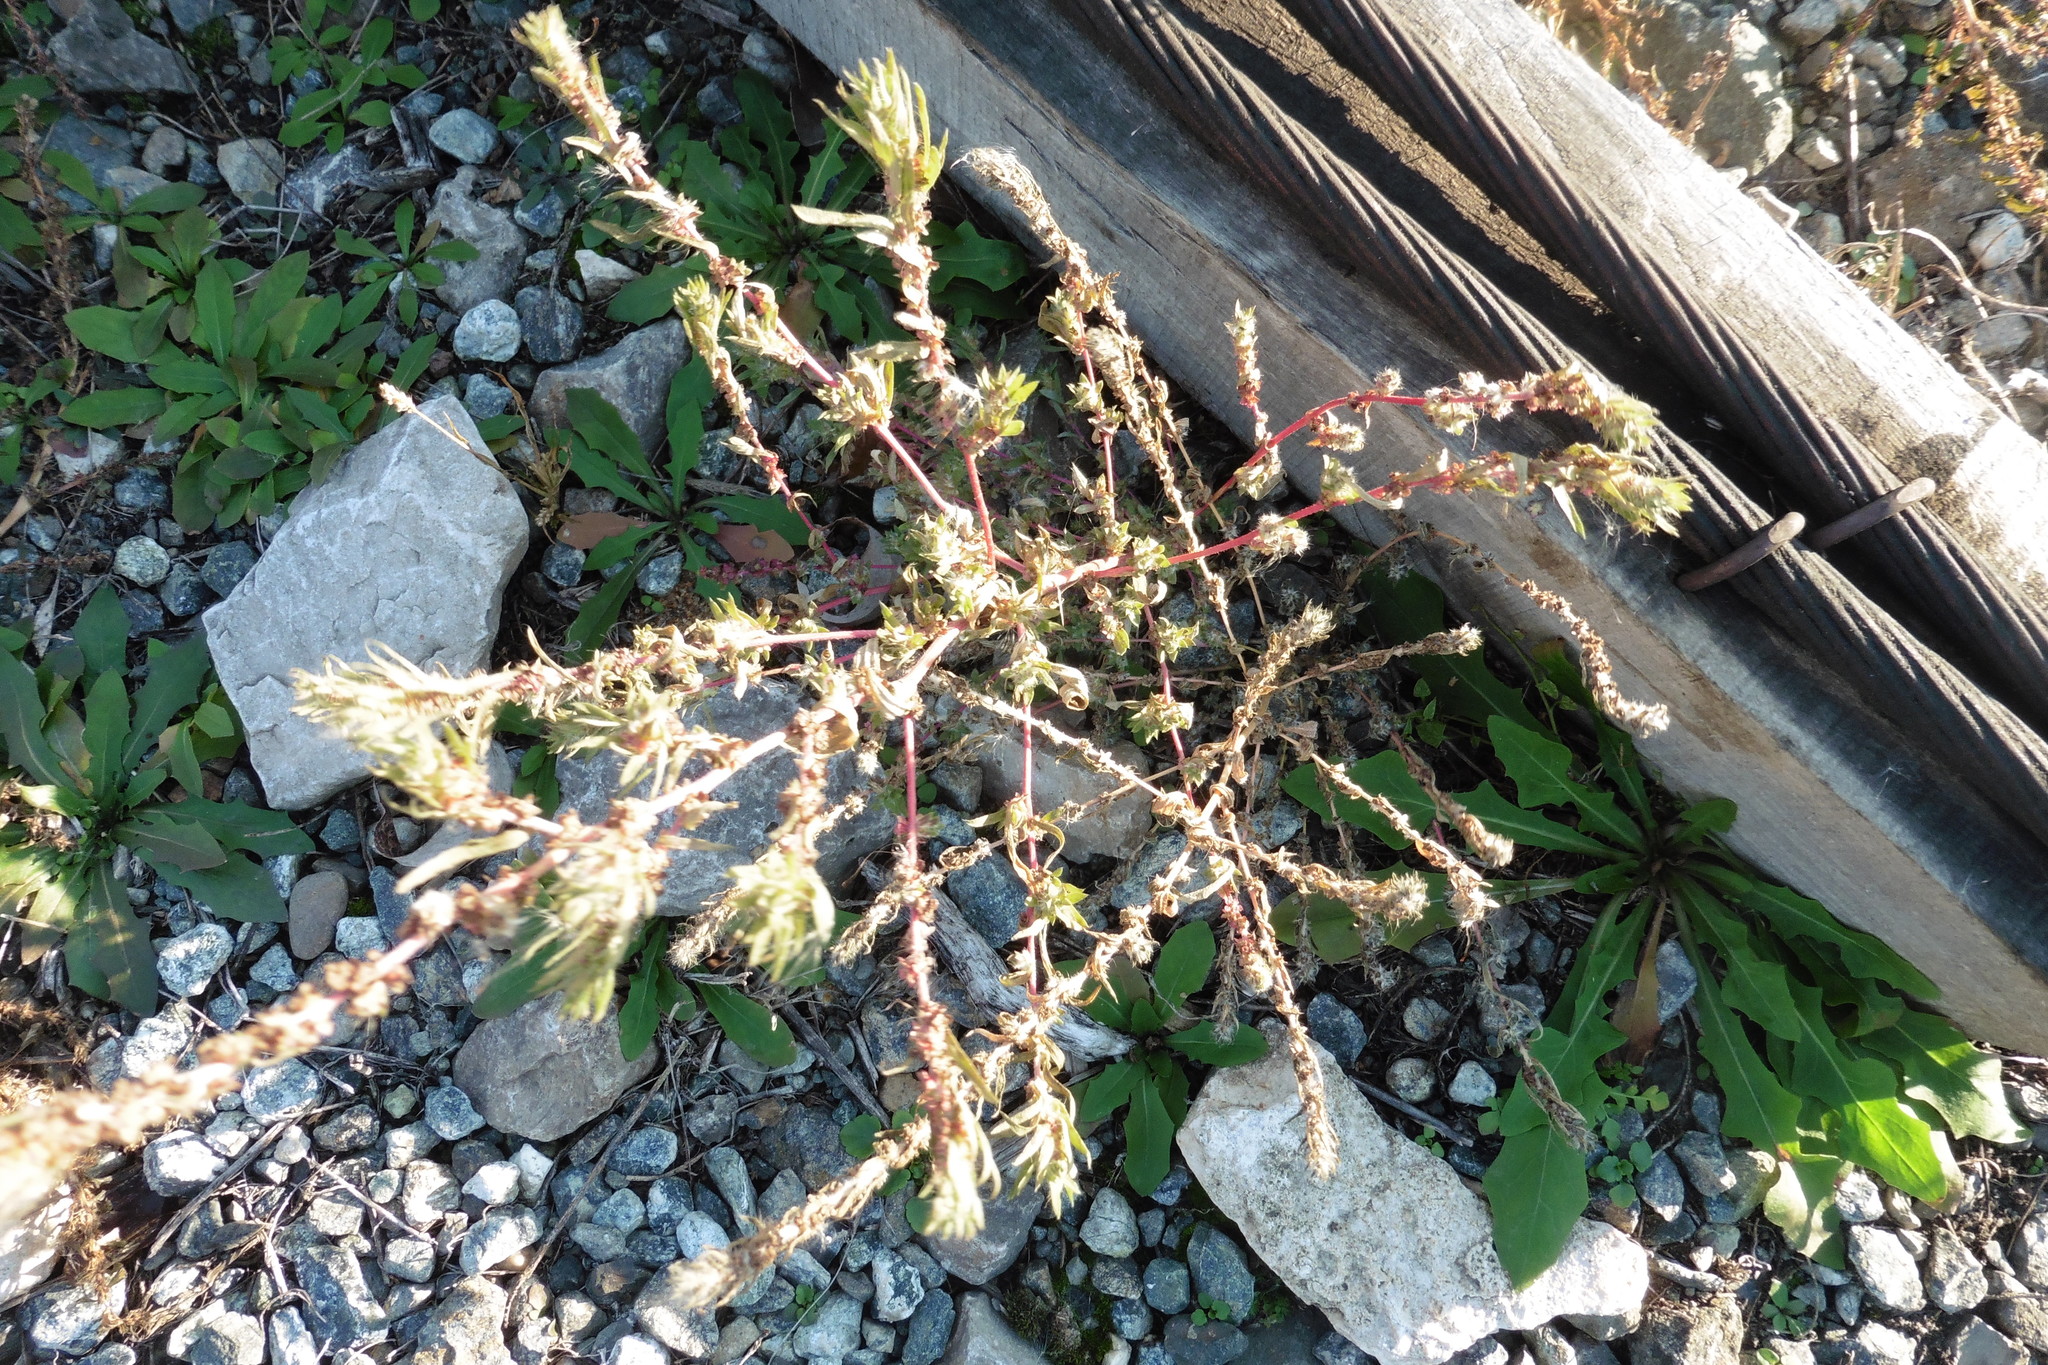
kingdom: Plantae
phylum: Tracheophyta
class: Magnoliopsida
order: Caryophyllales
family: Amaranthaceae
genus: Bassia
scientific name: Bassia scoparia
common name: Belvedere
